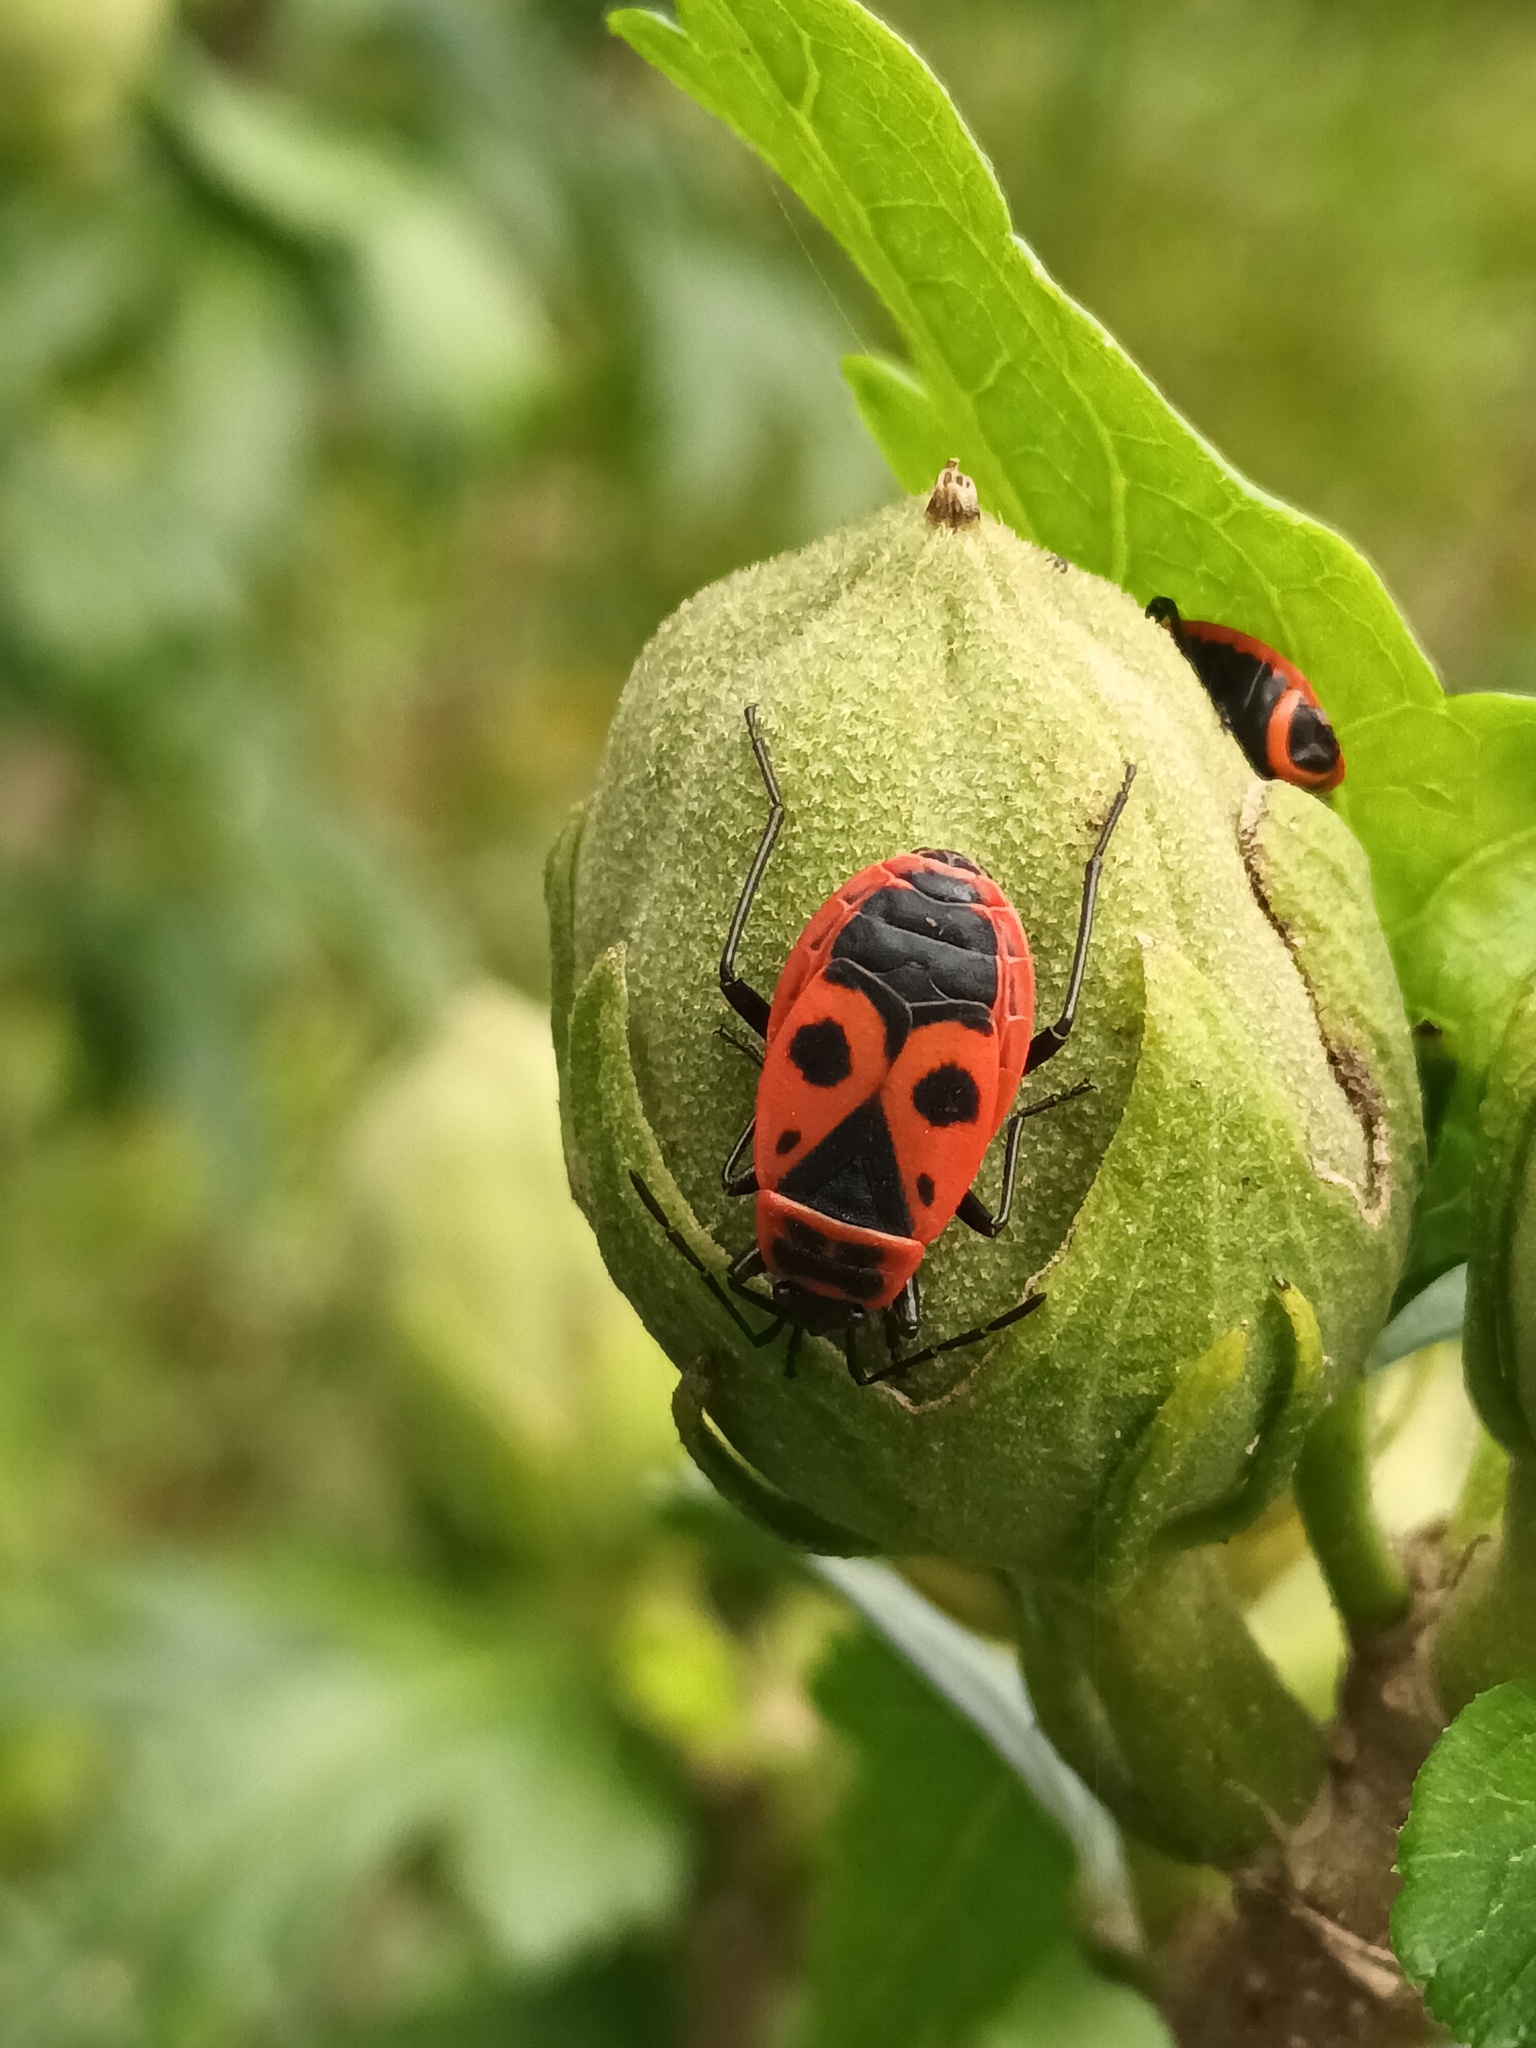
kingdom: Animalia
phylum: Arthropoda
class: Insecta
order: Hemiptera
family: Pyrrhocoridae
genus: Pyrrhocoris
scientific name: Pyrrhocoris apterus
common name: Firebug
